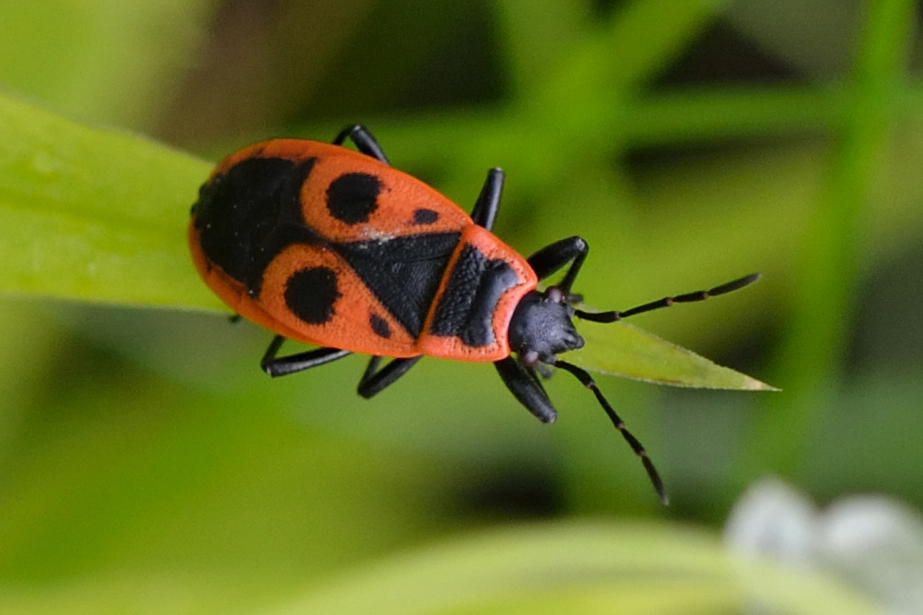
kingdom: Animalia
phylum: Arthropoda
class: Insecta
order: Hemiptera
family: Pyrrhocoridae
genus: Pyrrhocoris
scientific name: Pyrrhocoris apterus
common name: Firebug
